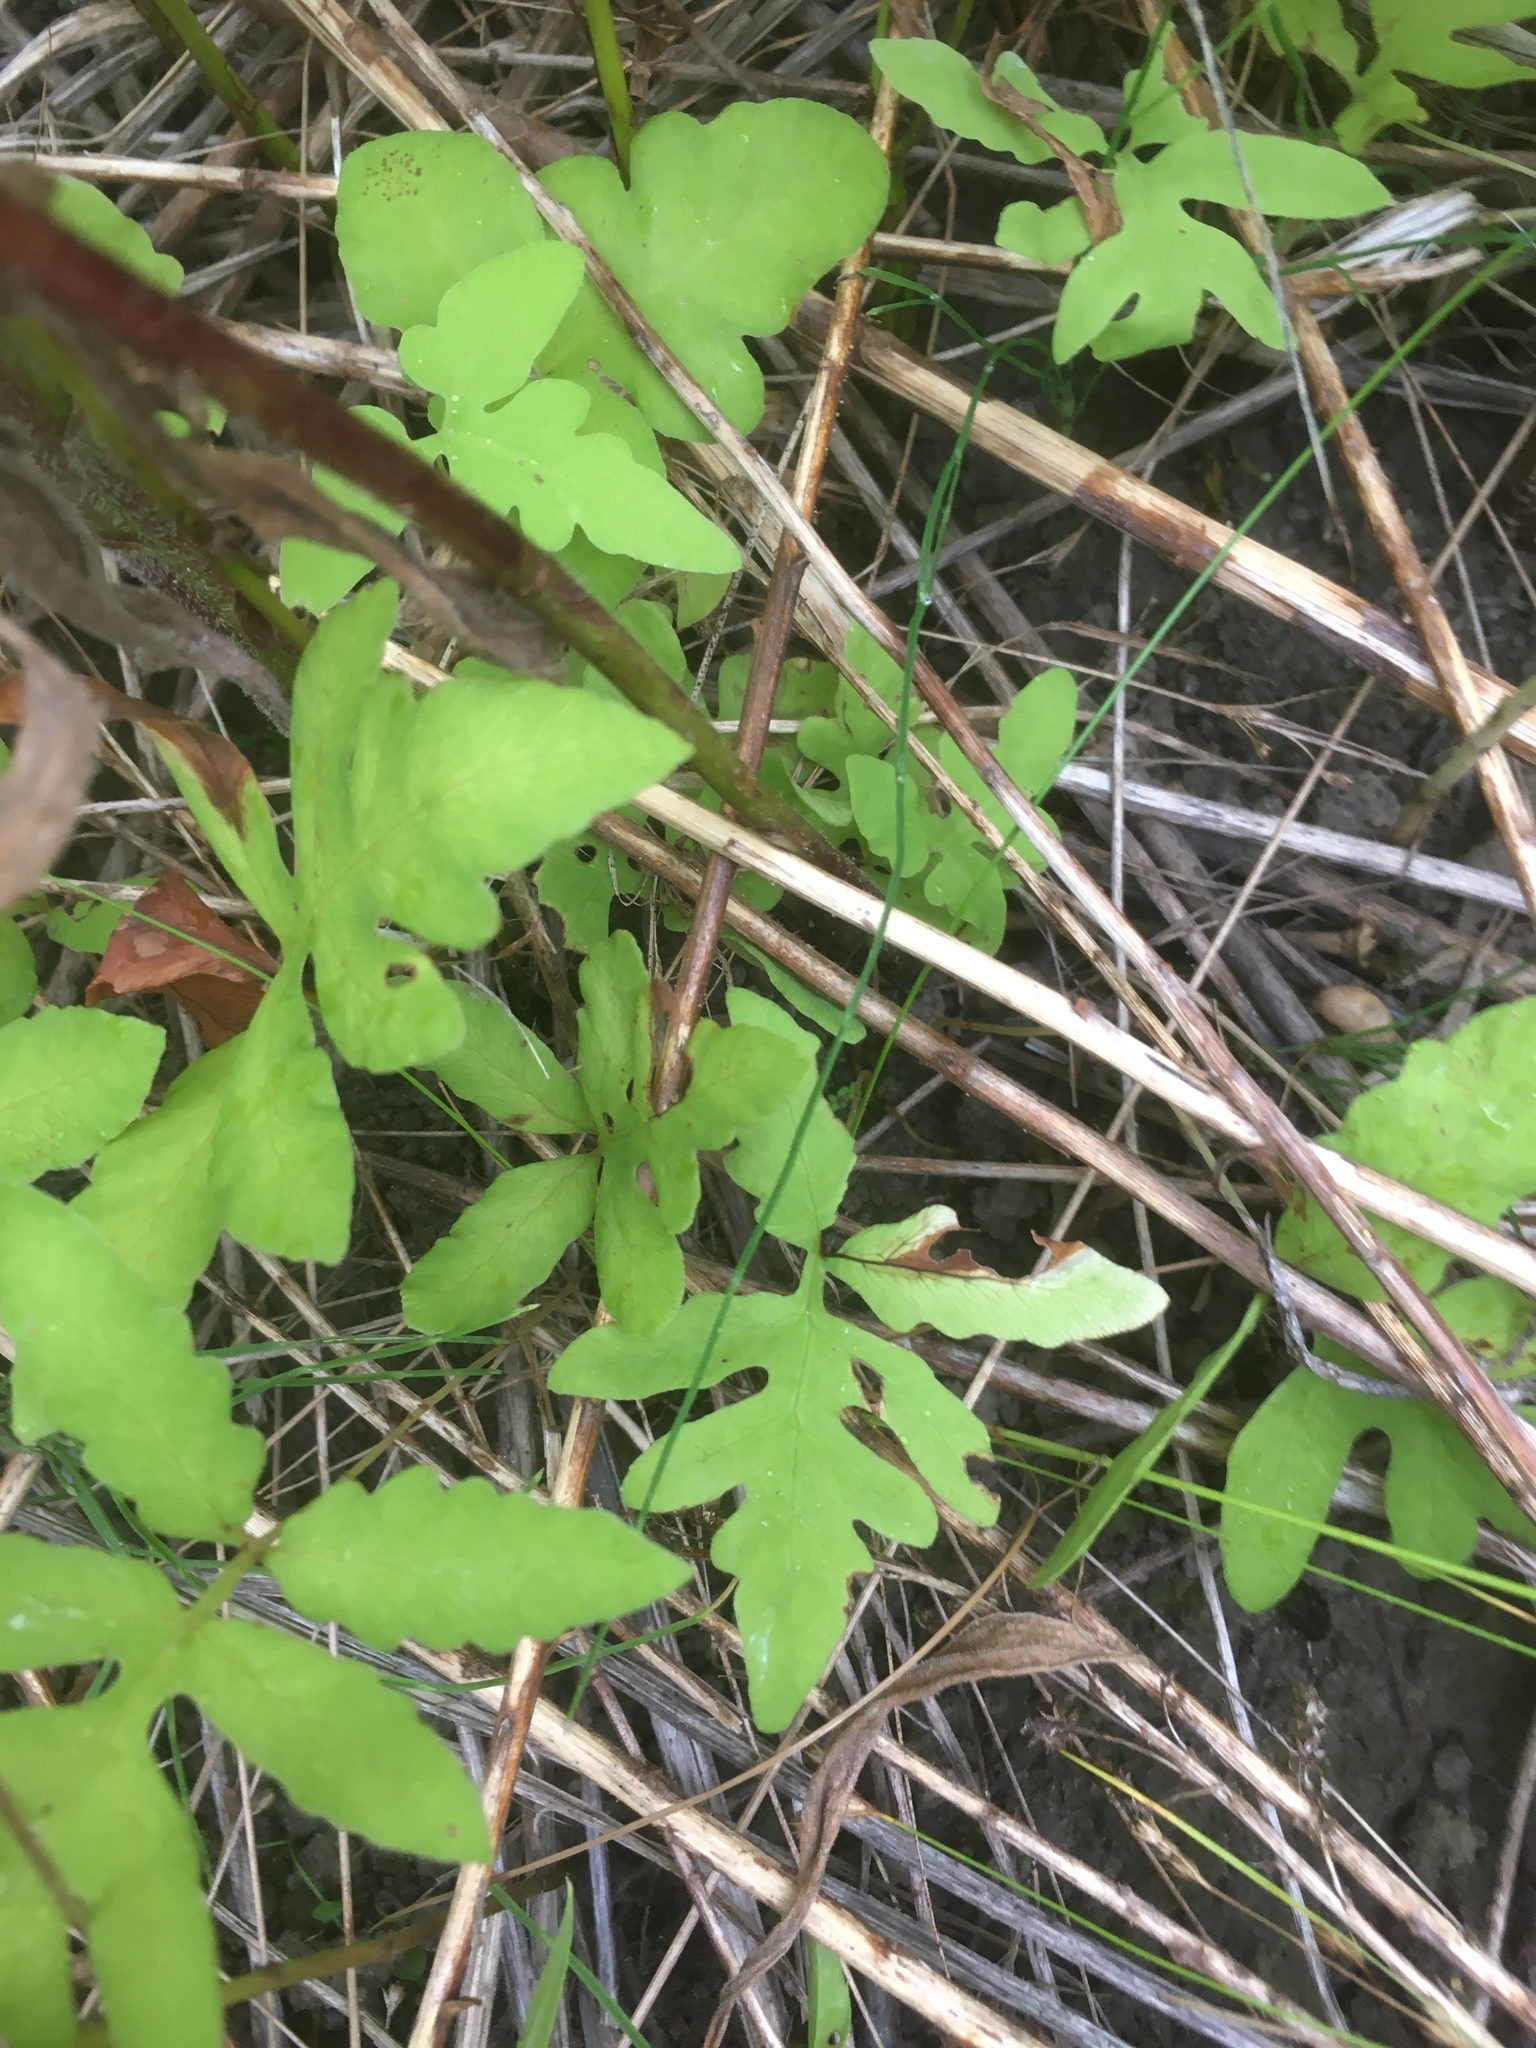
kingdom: Plantae
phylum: Tracheophyta
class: Polypodiopsida
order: Polypodiales
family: Onocleaceae
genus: Onoclea
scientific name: Onoclea sensibilis
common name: Sensitive fern
